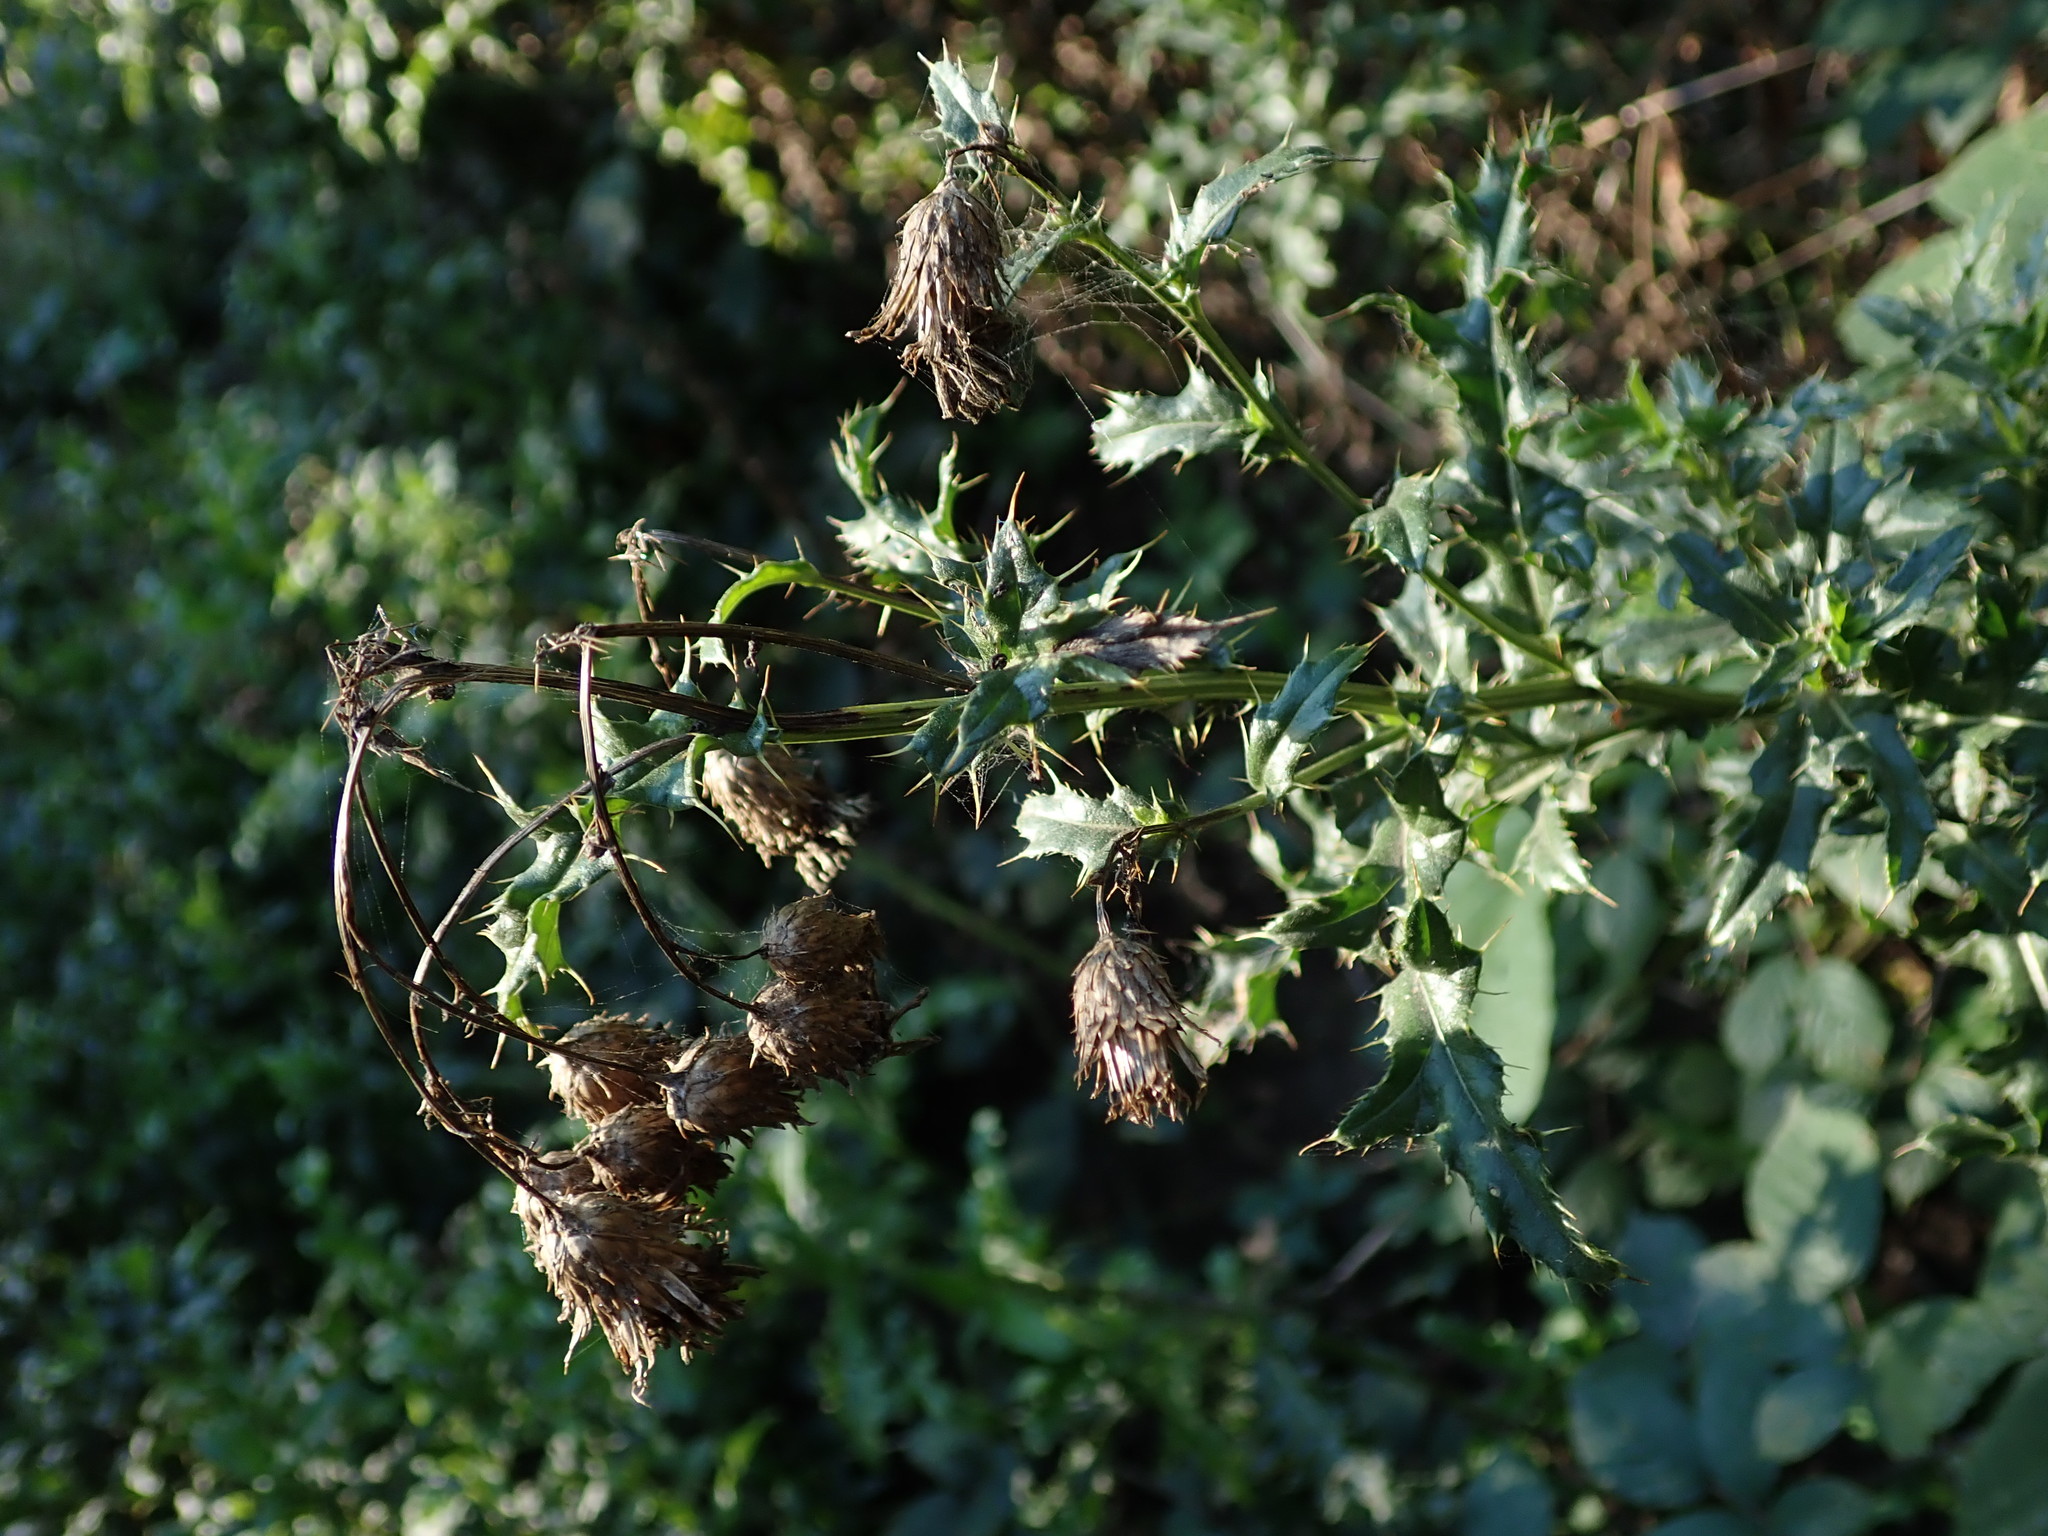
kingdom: Plantae
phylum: Tracheophyta
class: Magnoliopsida
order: Asterales
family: Asteraceae
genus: Cirsium
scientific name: Cirsium arvense
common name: Creeping thistle
